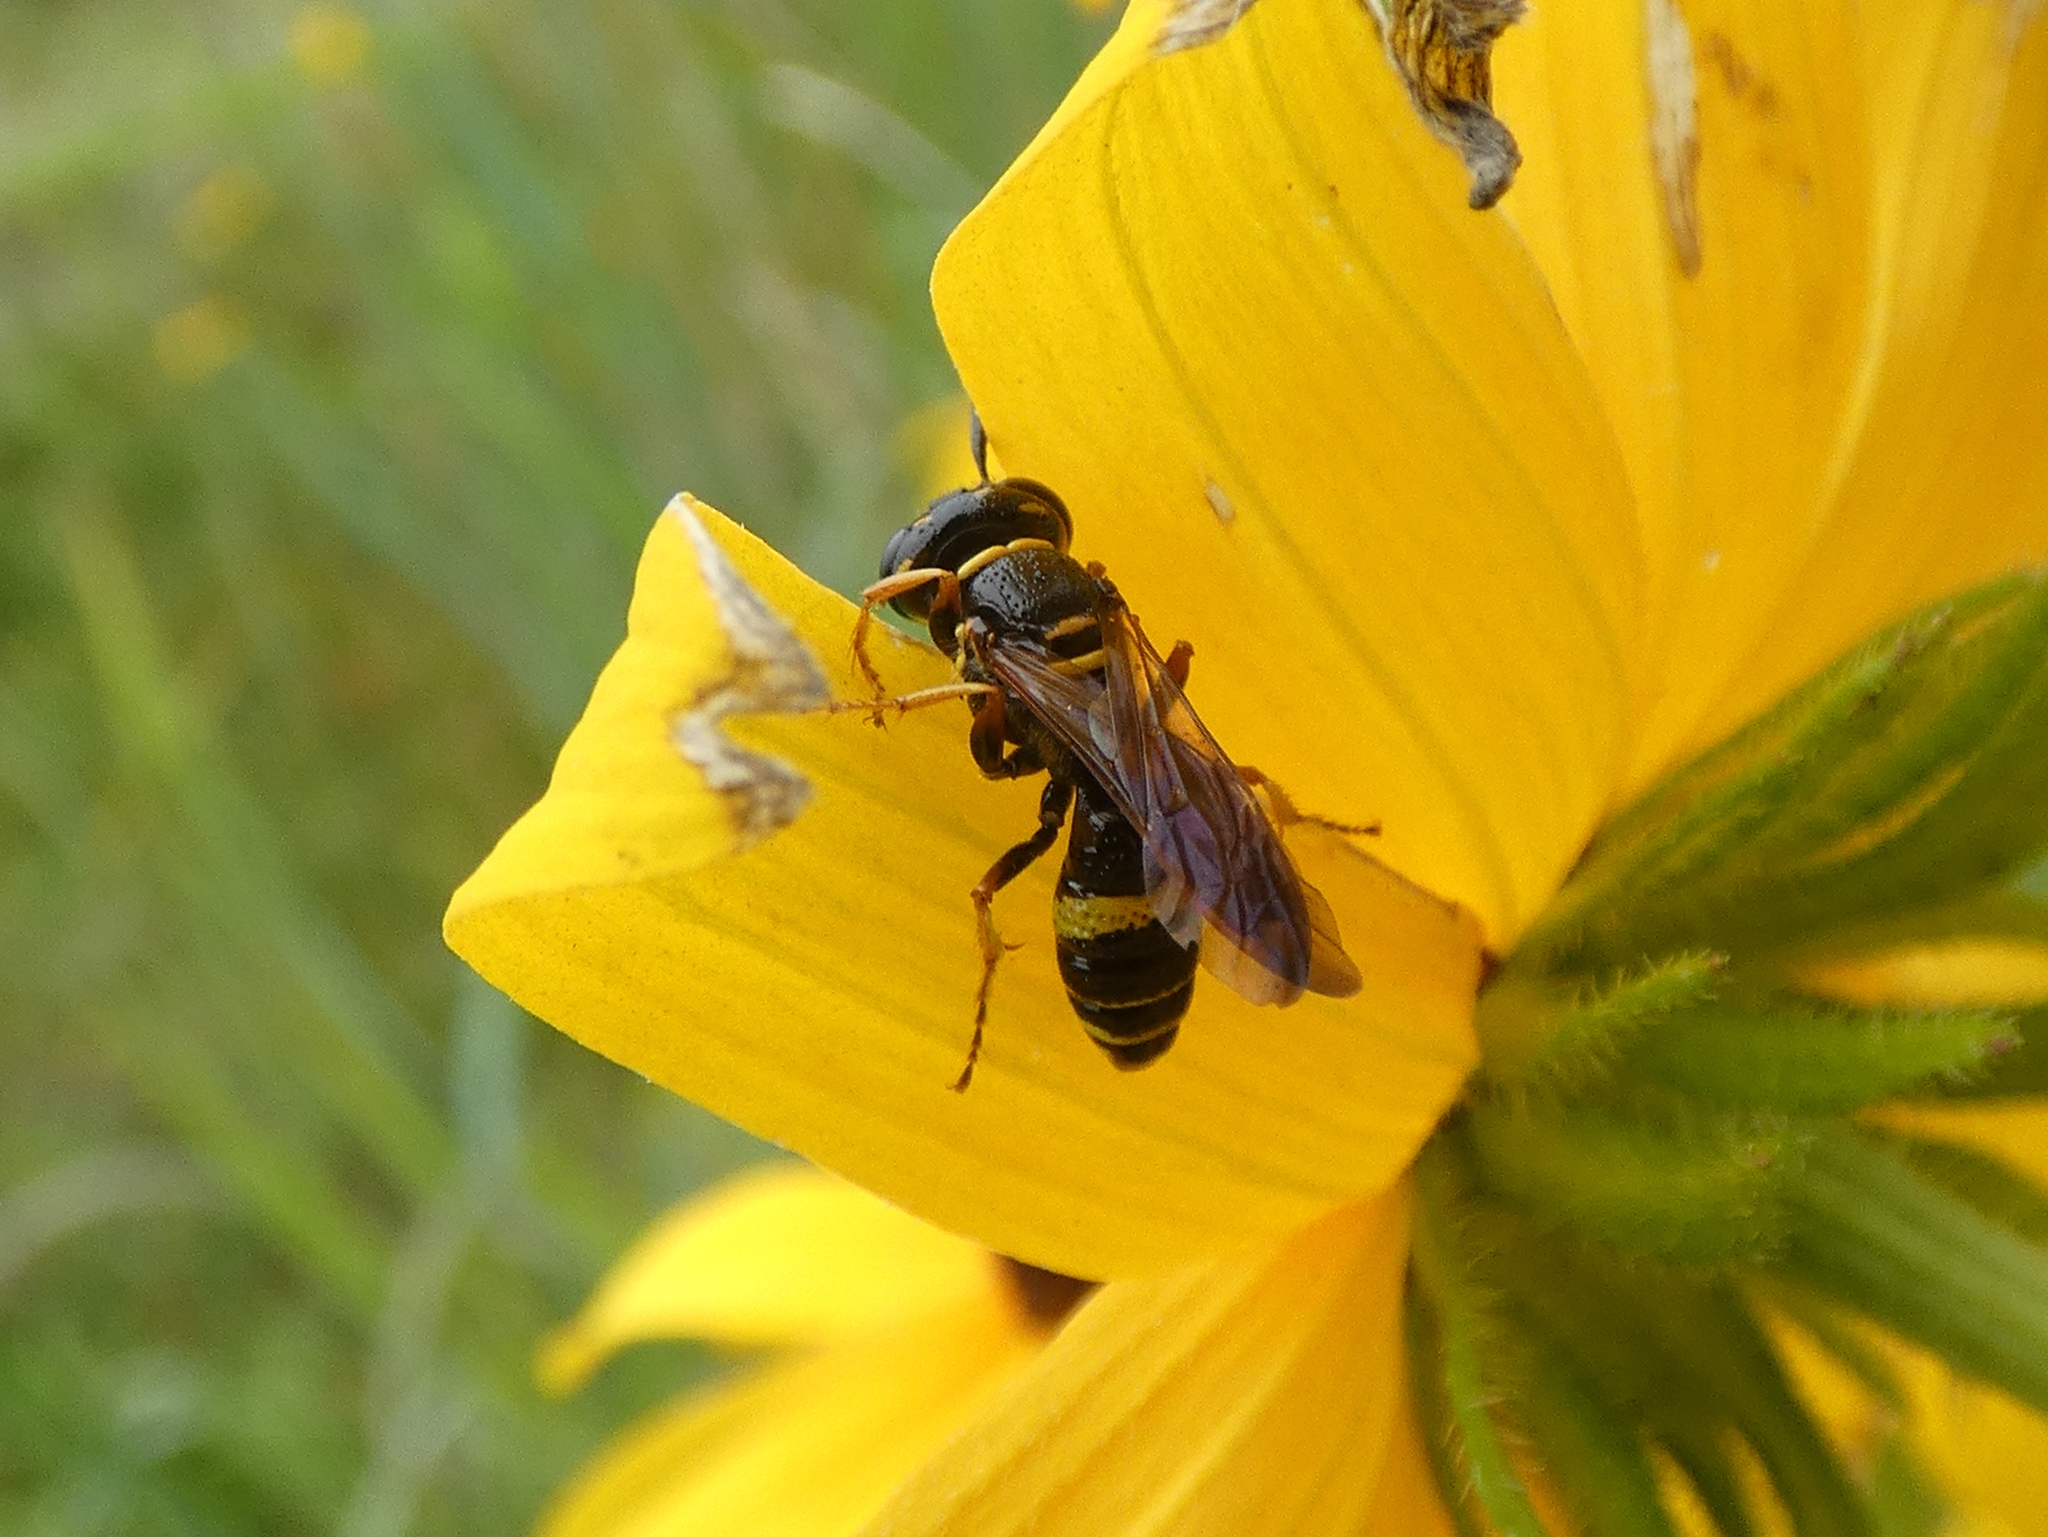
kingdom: Animalia
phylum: Arthropoda
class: Insecta
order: Hymenoptera
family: Crabronidae
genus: Philanthus
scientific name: Philanthus gibbosus
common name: Humped beewolf
